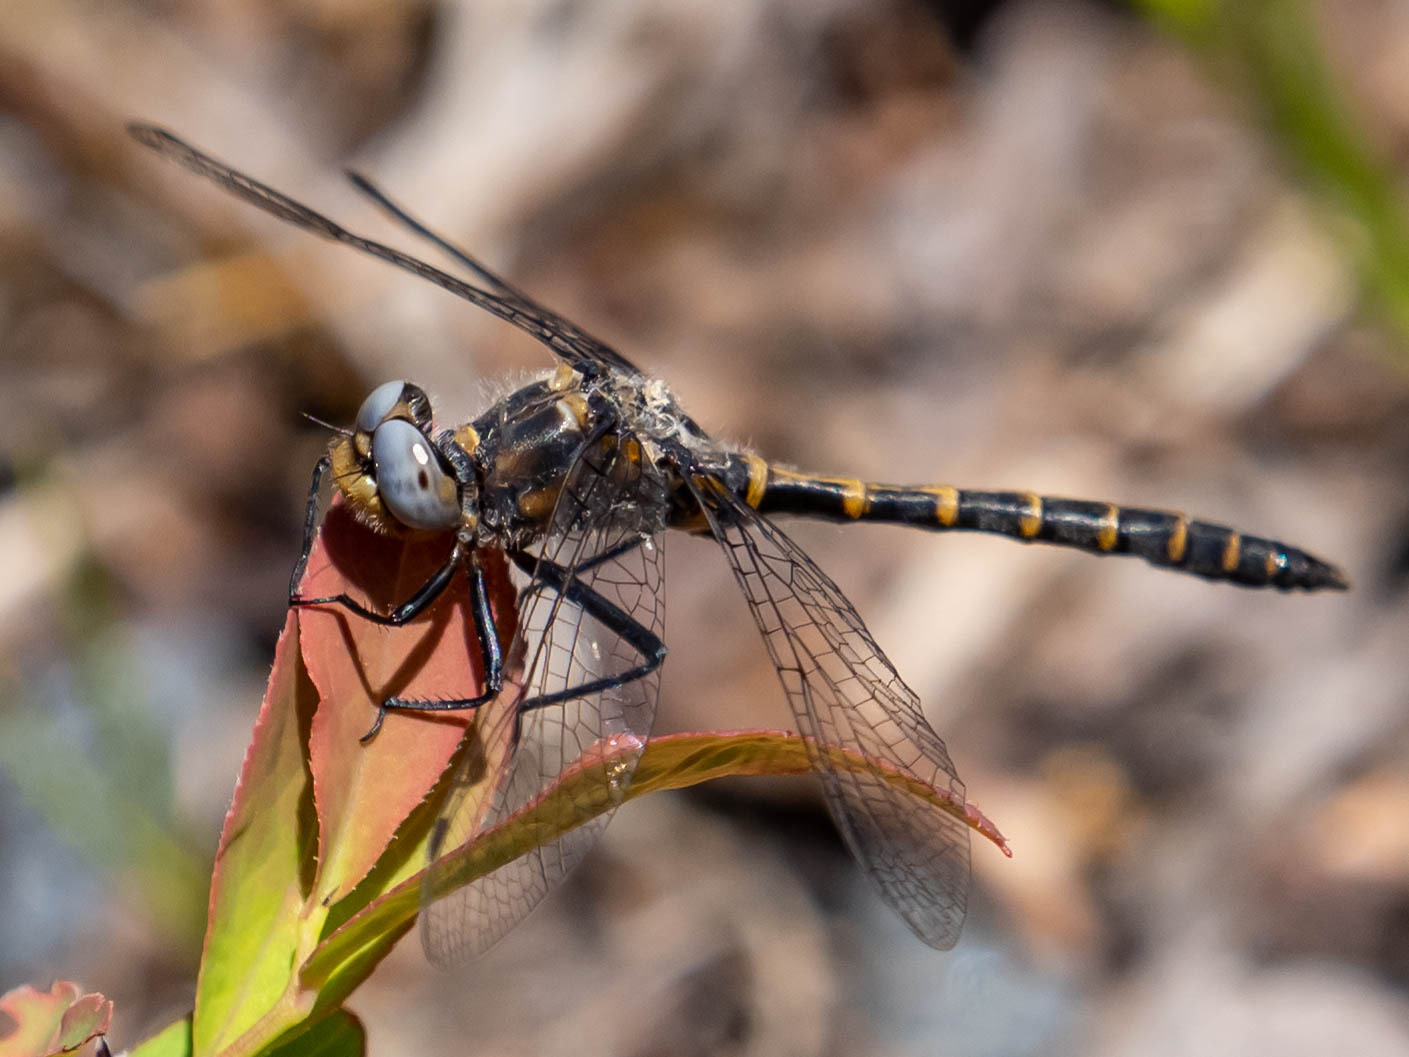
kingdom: Animalia
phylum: Arthropoda
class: Insecta
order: Odonata
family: Corduliidae
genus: Williamsonia
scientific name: Williamsonia lintneri
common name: Ringed boghaunter
